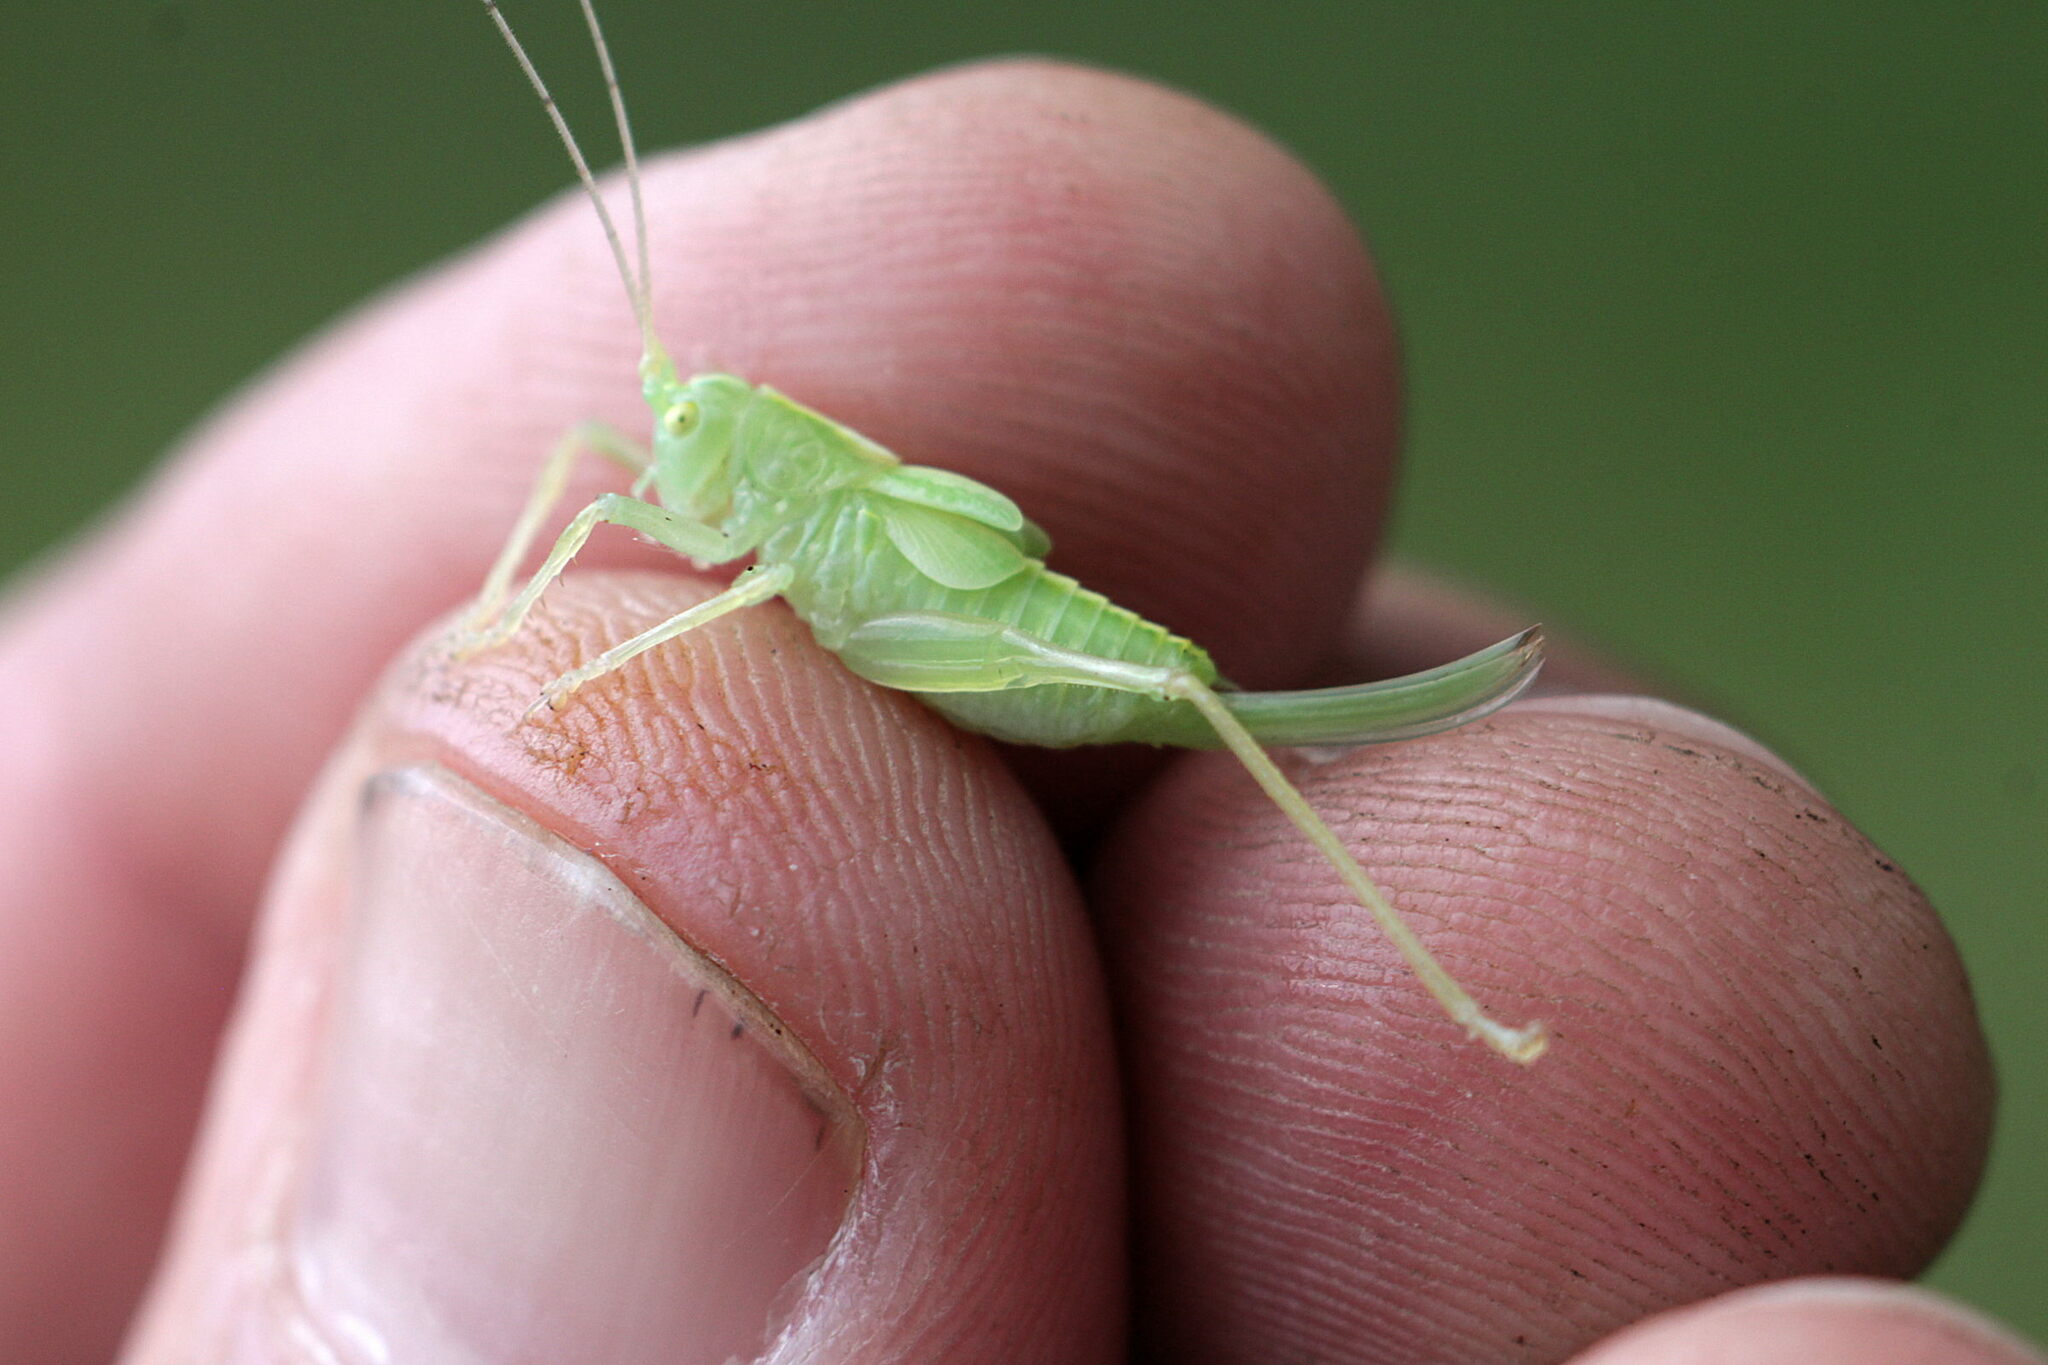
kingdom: Animalia
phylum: Arthropoda
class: Insecta
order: Orthoptera
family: Tettigoniidae
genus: Meconema
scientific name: Meconema thalassinum
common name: Oak bush-cricket
